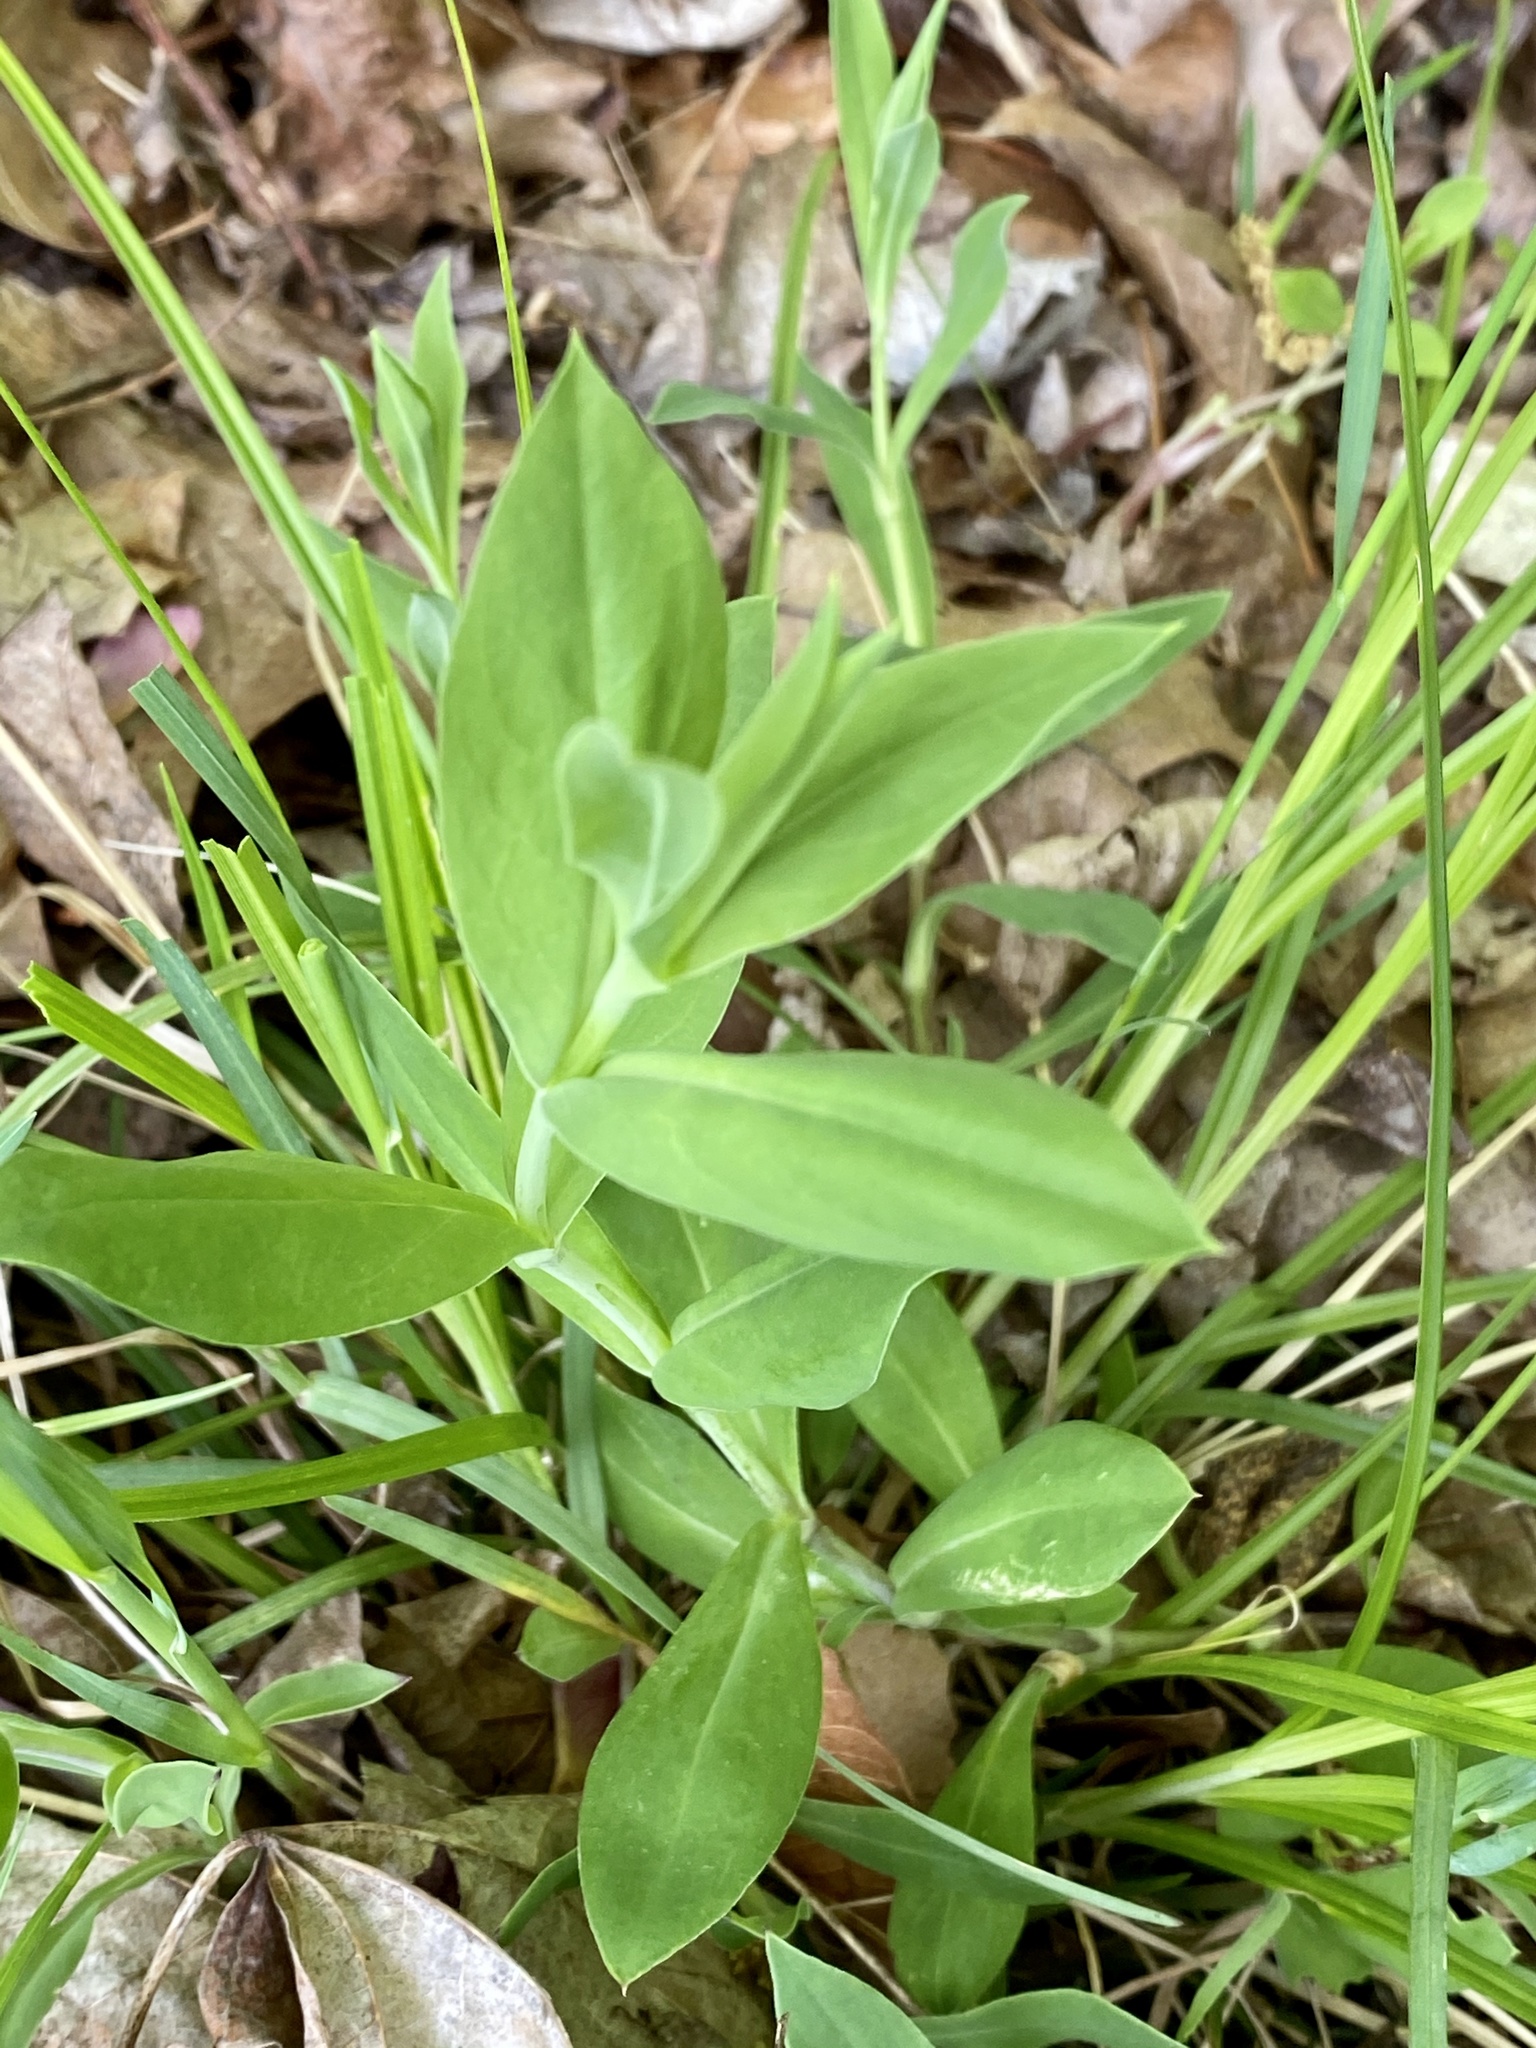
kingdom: Plantae
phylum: Tracheophyta
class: Magnoliopsida
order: Caryophyllales
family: Caryophyllaceae
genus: Silene
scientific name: Silene vulgaris
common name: Bladder campion
